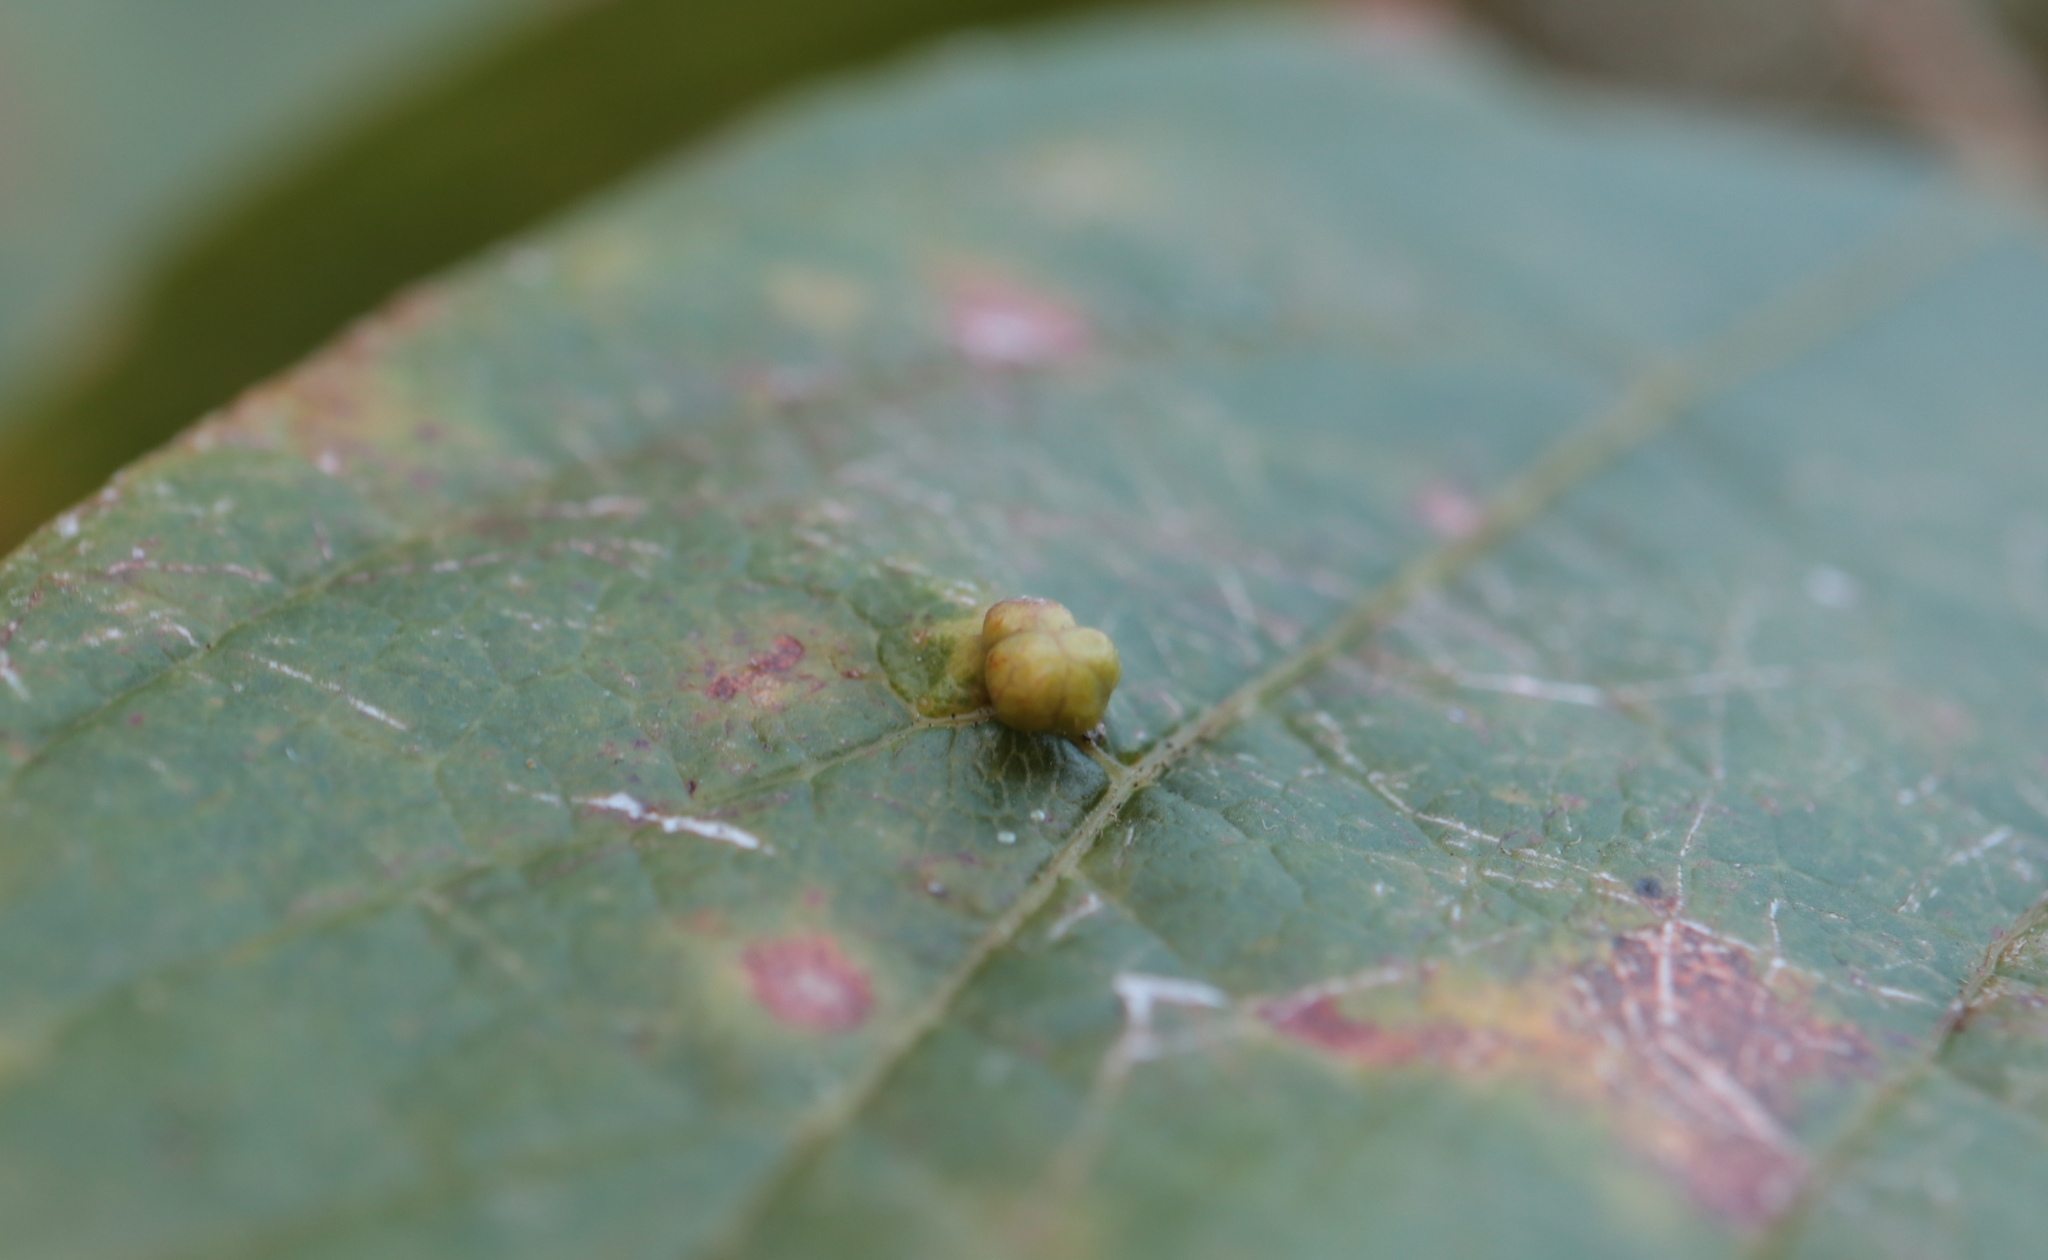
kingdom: Animalia
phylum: Arthropoda
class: Arachnida
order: Trombidiformes
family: Eriophyidae
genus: Aceria
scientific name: Aceria
